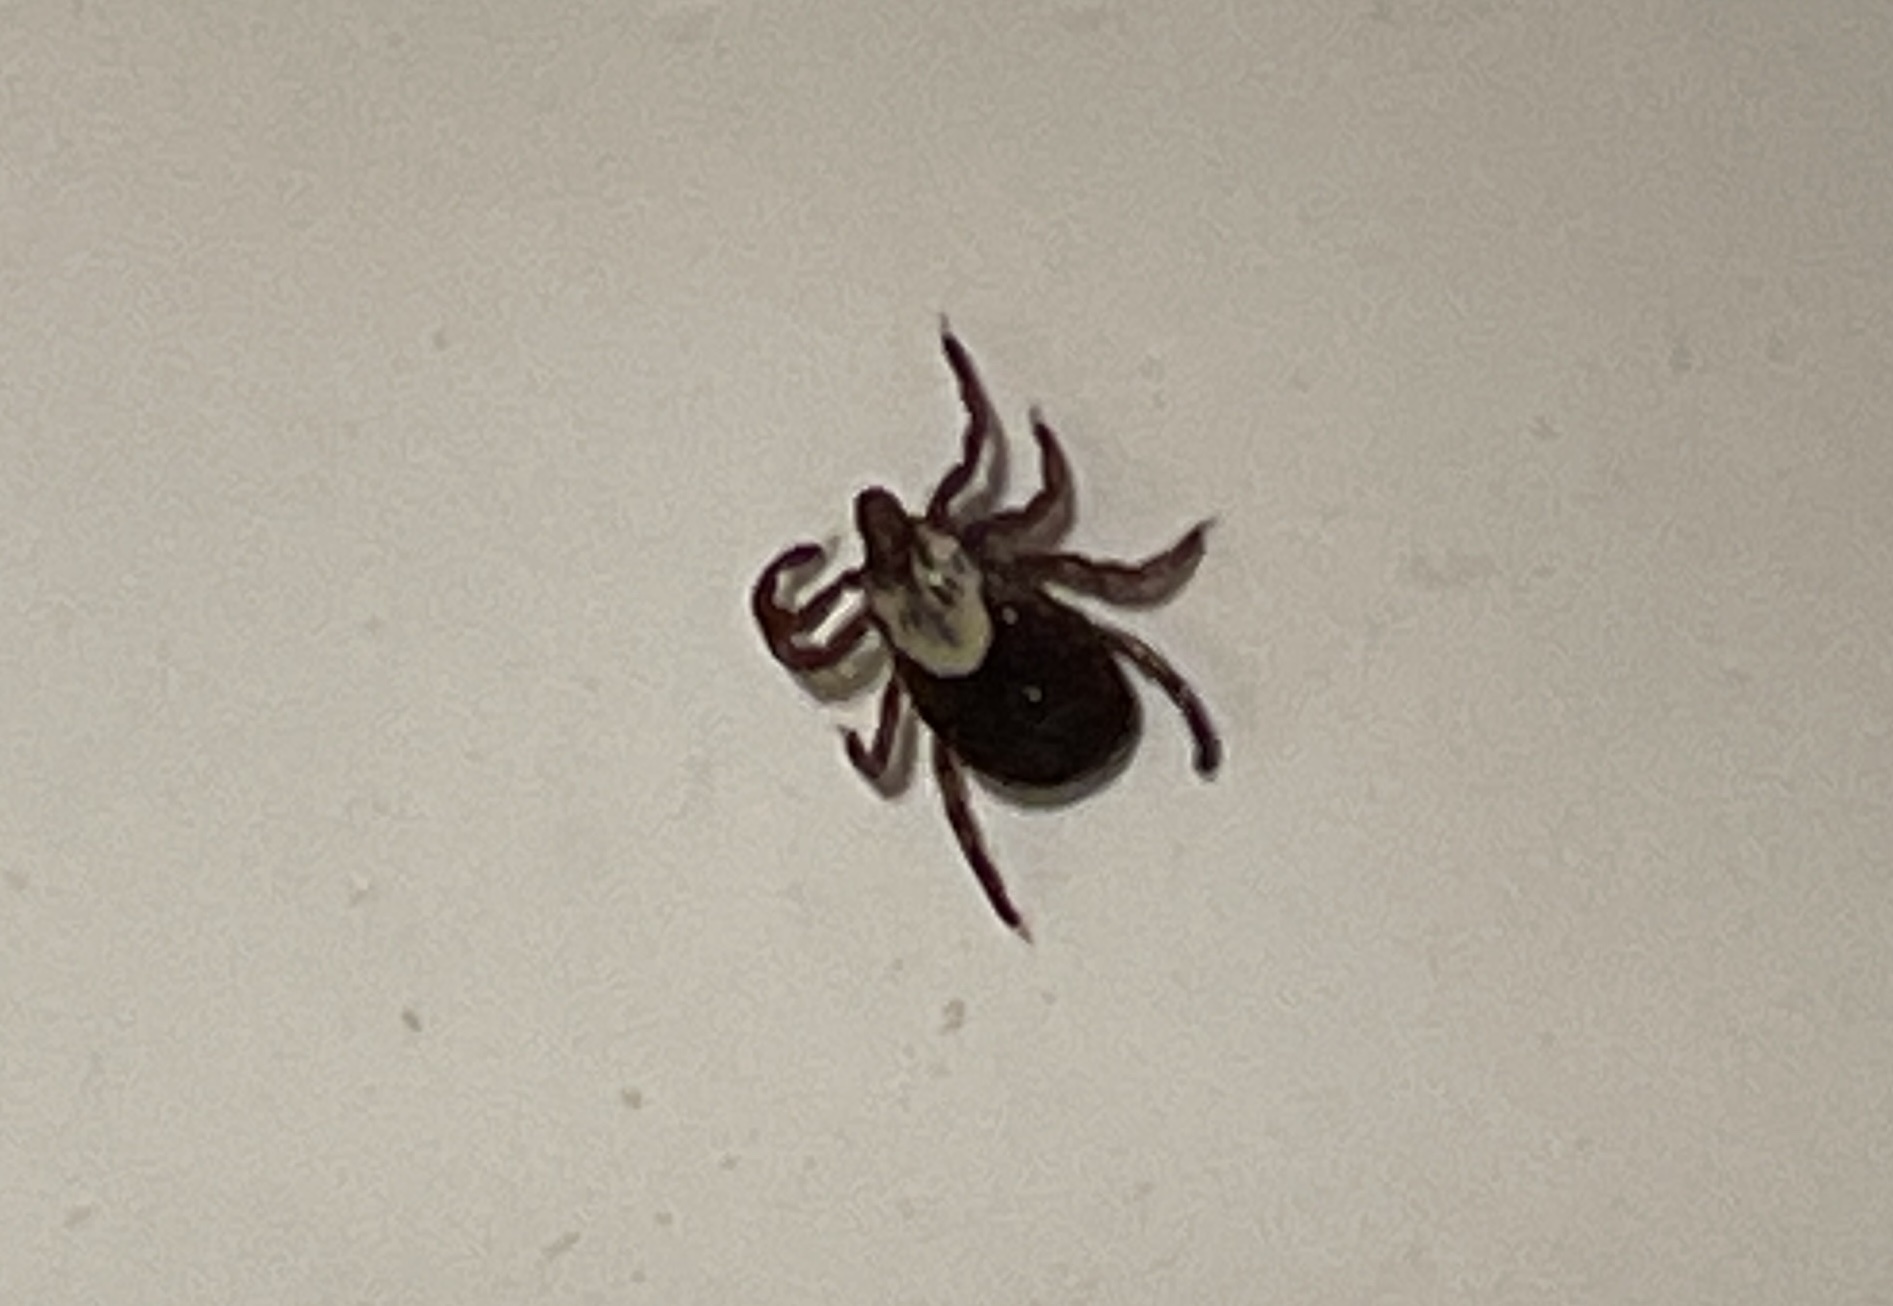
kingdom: Animalia
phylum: Arthropoda
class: Arachnida
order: Ixodida
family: Ixodidae
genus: Dermacentor
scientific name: Dermacentor variabilis
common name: American dog tick
